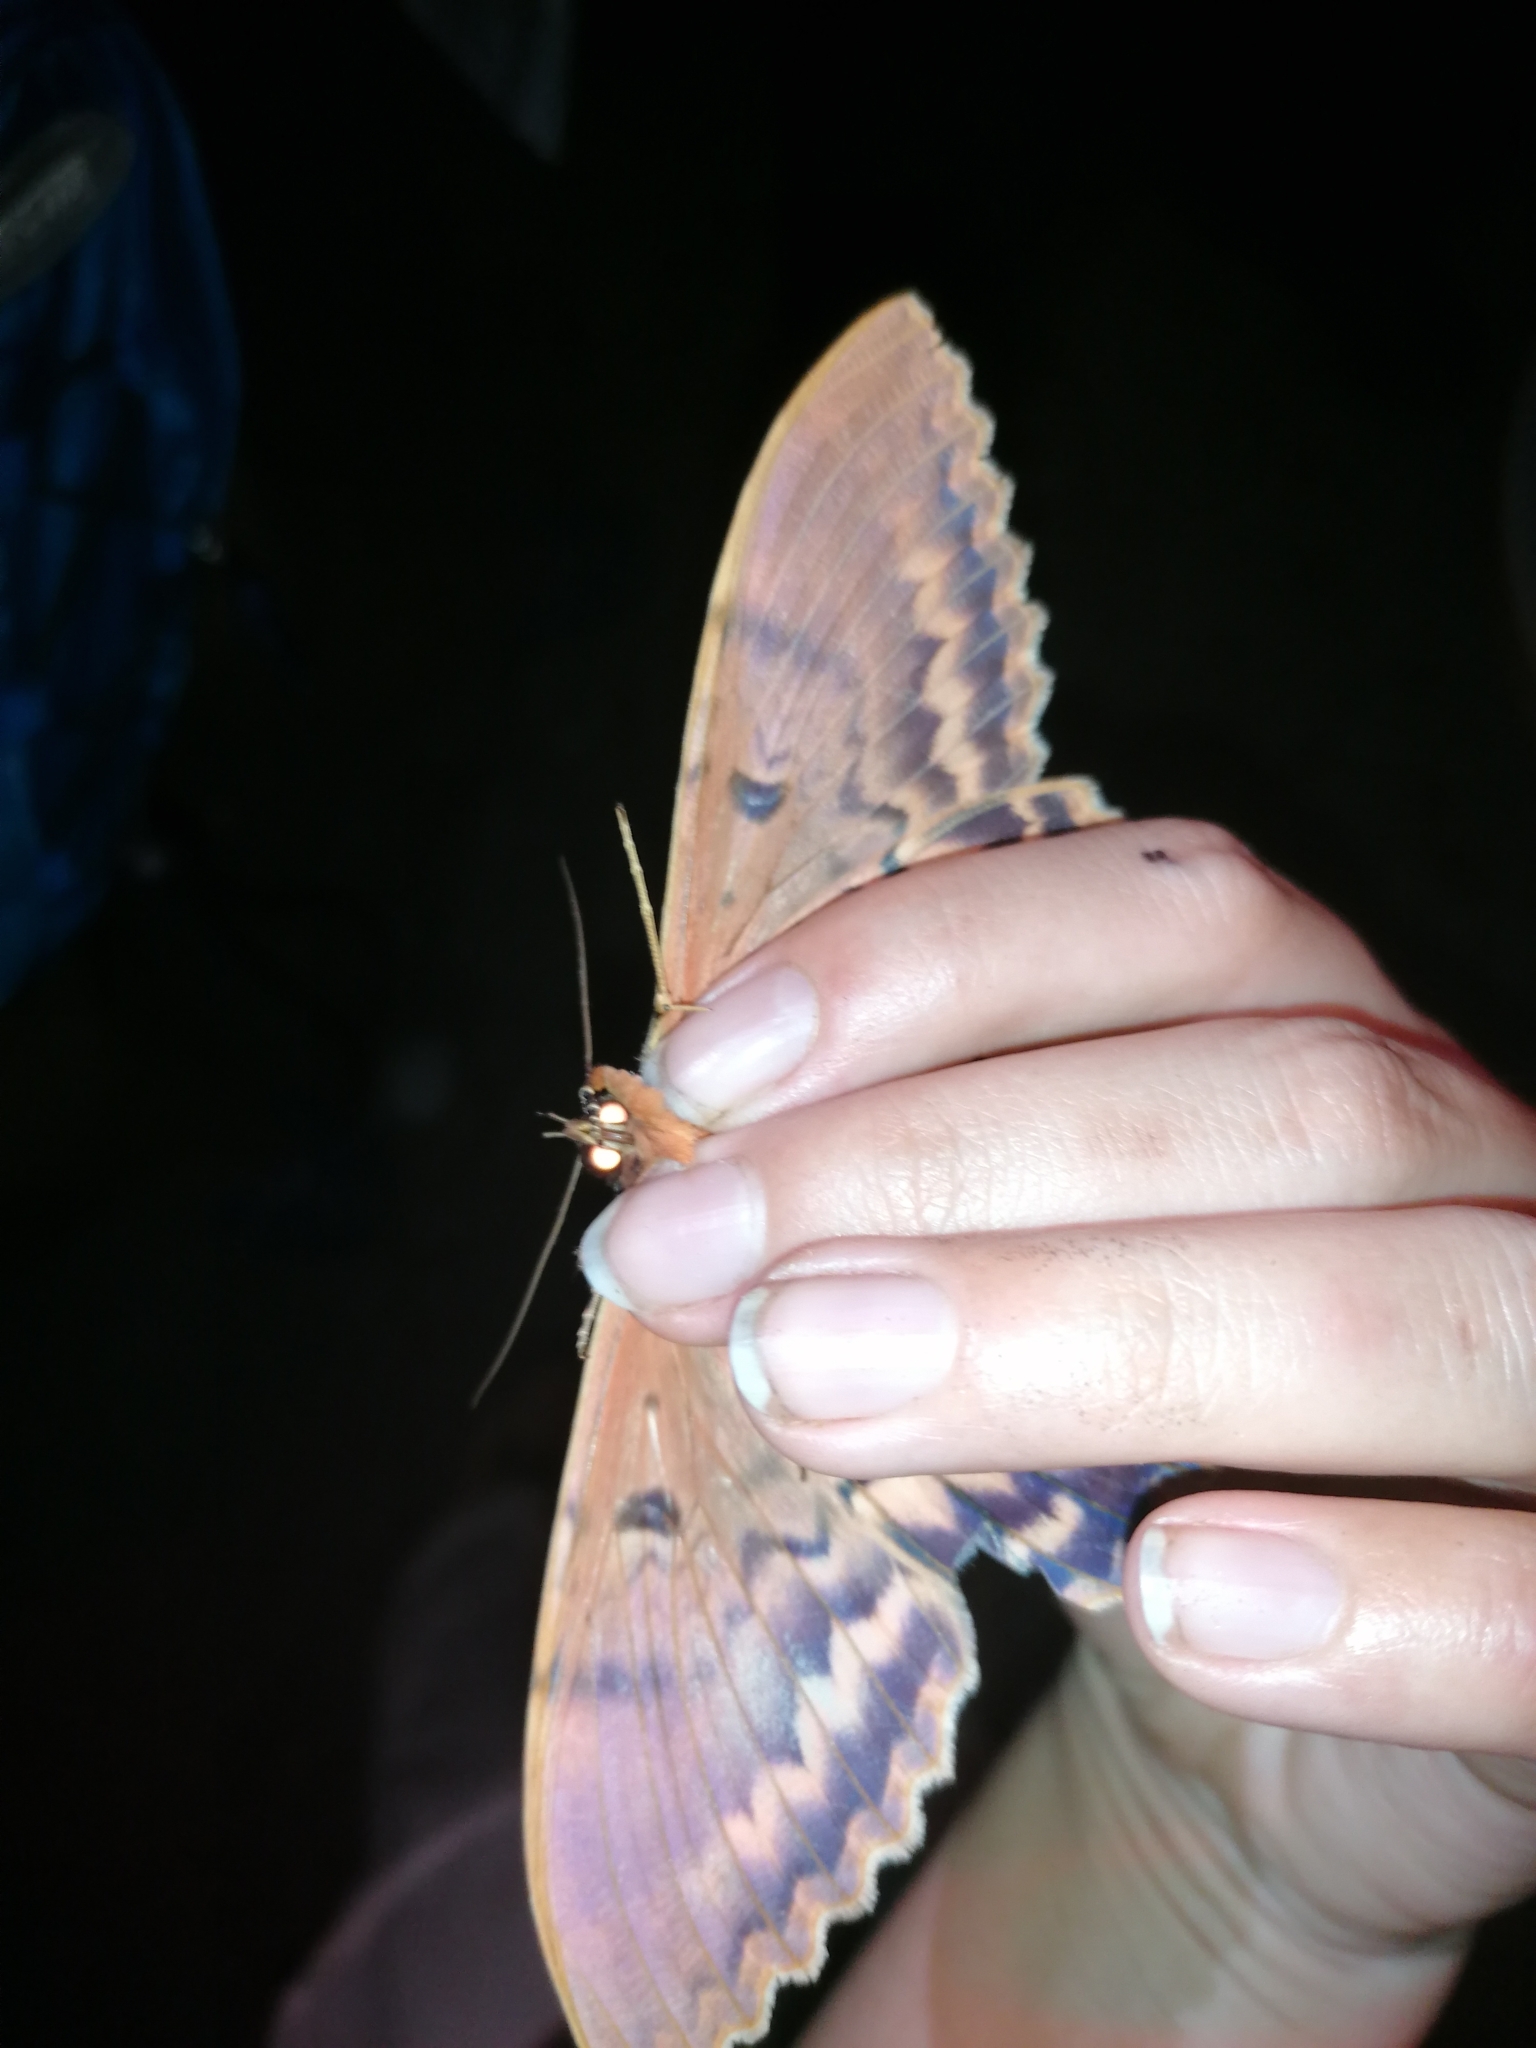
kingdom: Animalia
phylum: Arthropoda
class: Insecta
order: Lepidoptera
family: Erebidae
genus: Thysania
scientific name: Thysania zenobia
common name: Owl moth
